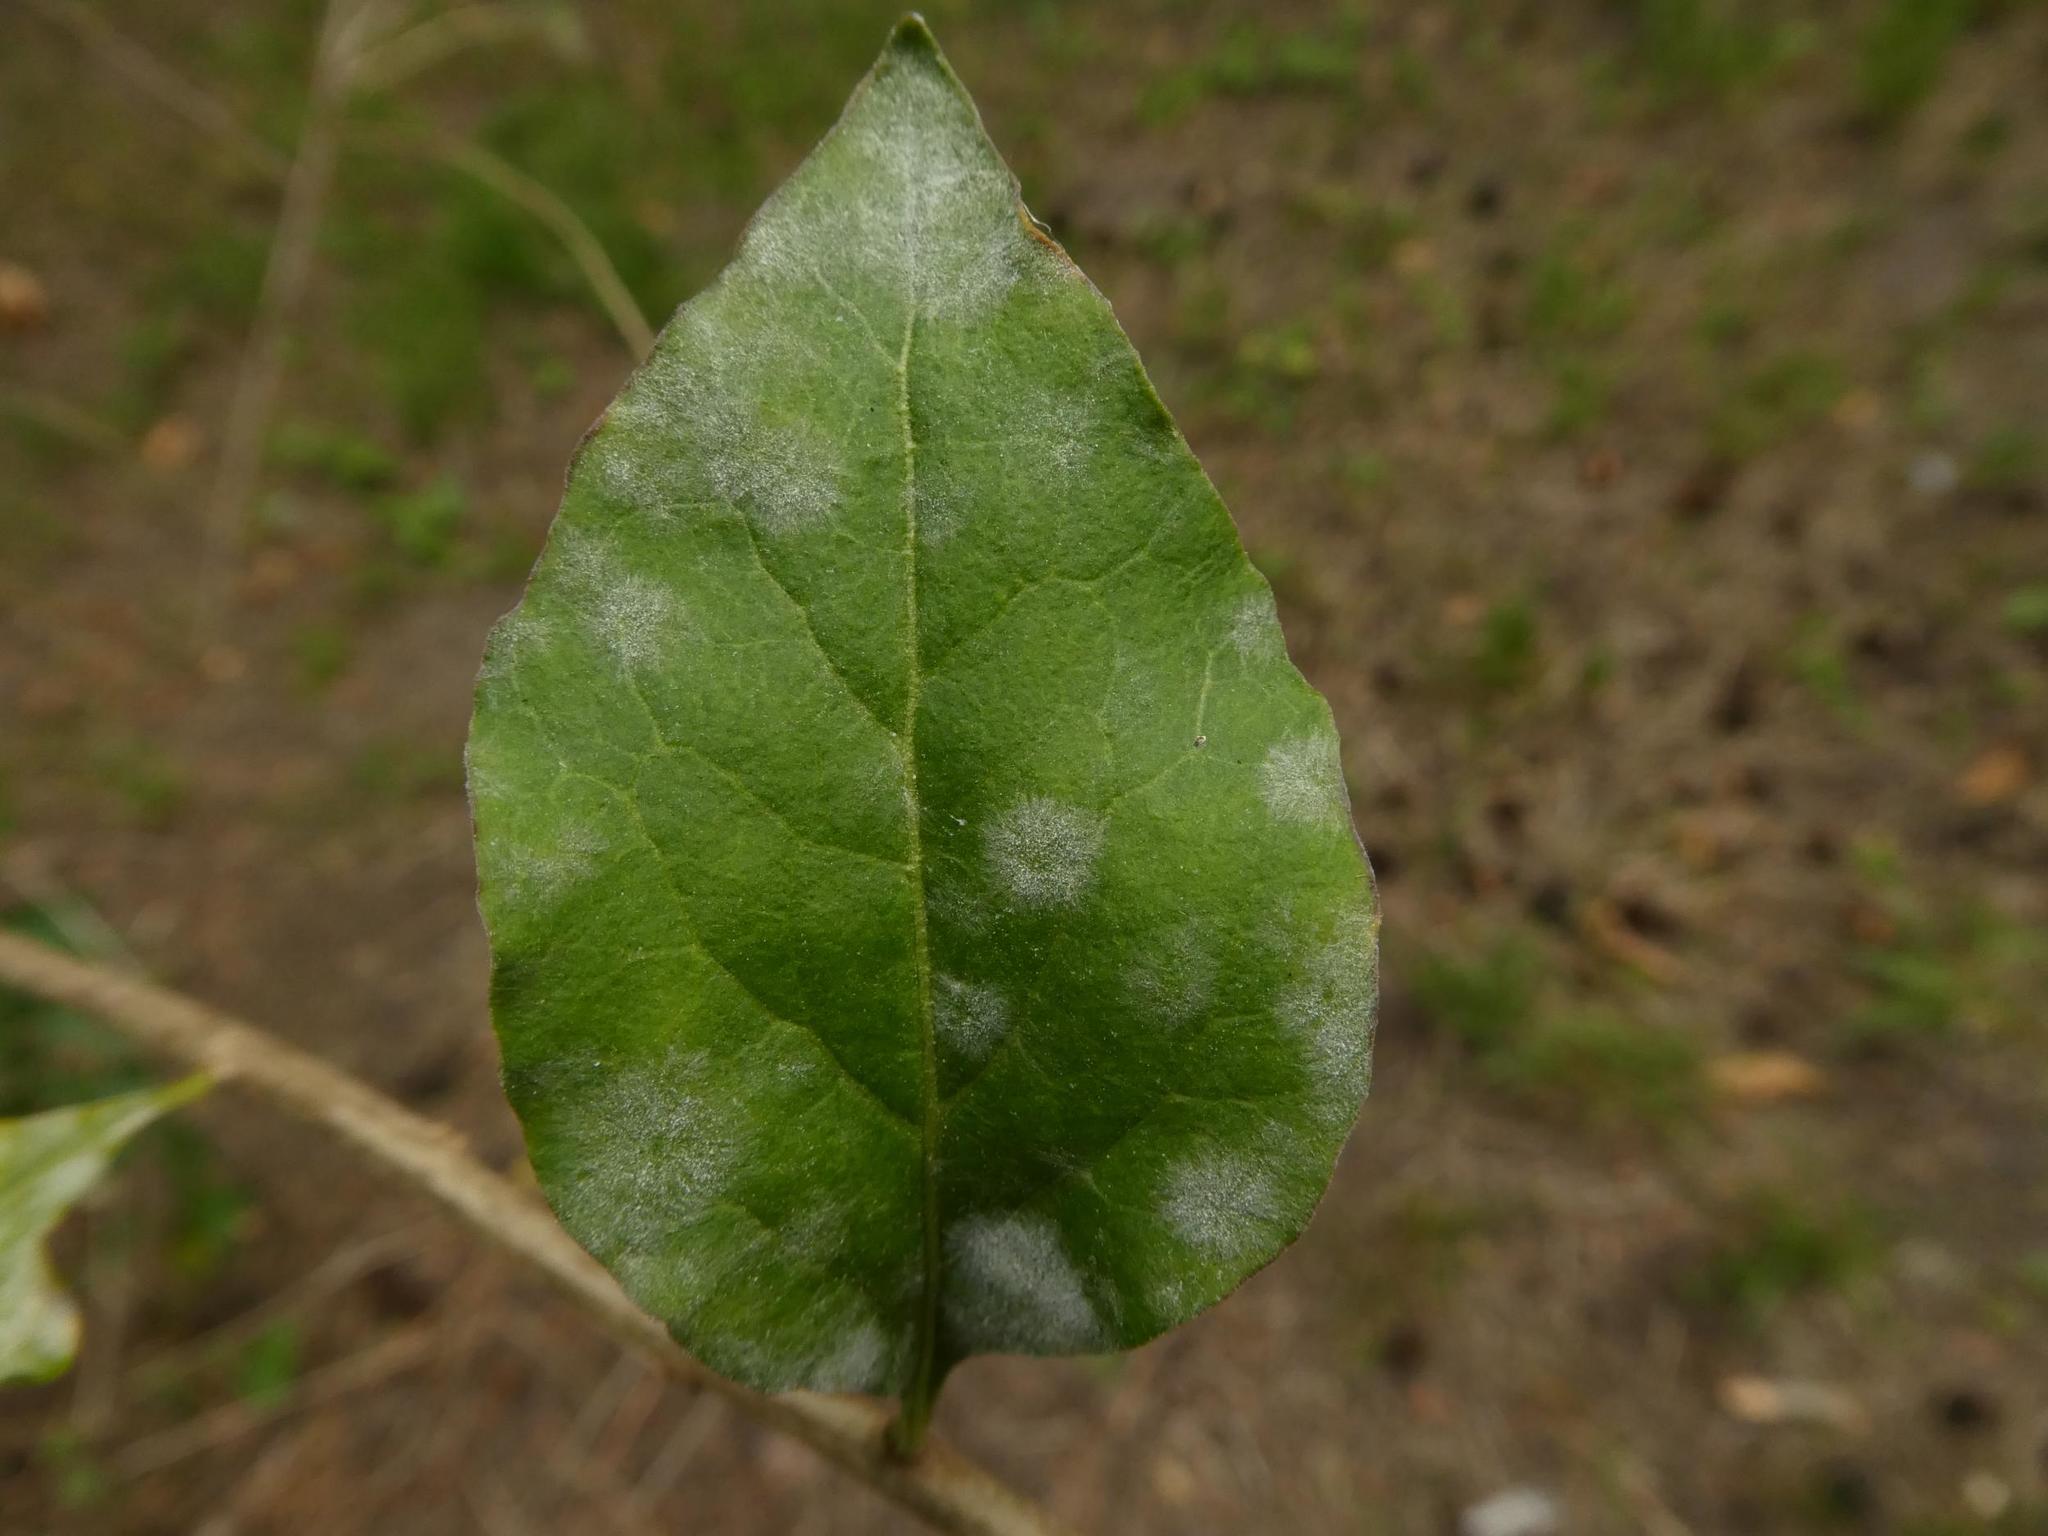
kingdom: Fungi
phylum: Ascomycota
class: Leotiomycetes
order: Helotiales
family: Erysiphaceae
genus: Erysiphe
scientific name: Erysiphe mougeotii
